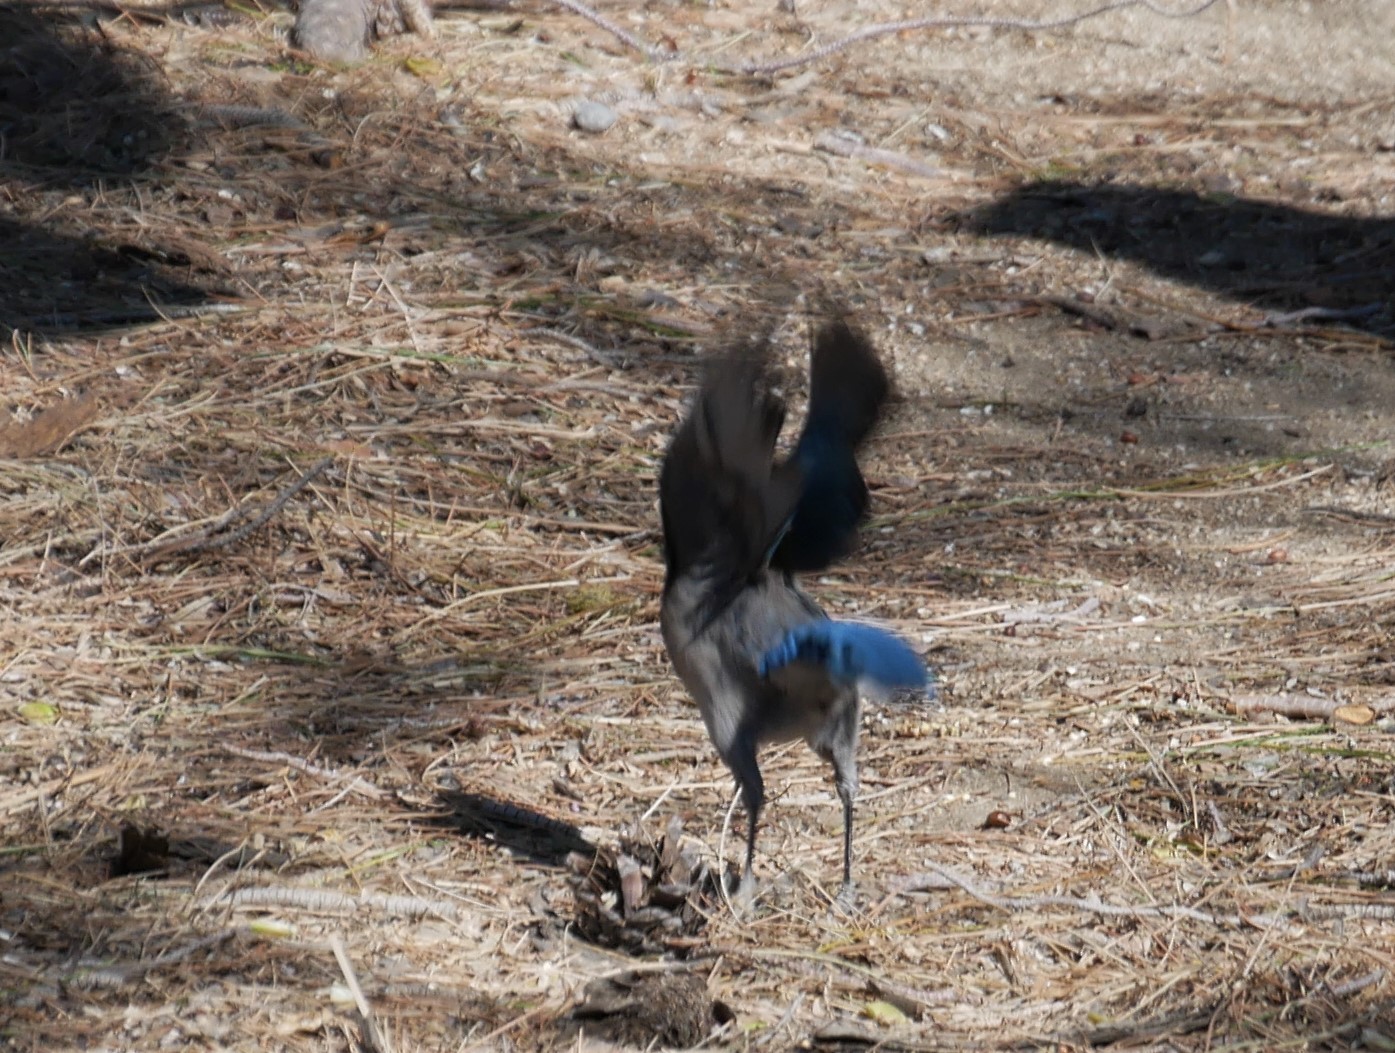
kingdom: Animalia
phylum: Chordata
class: Aves
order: Passeriformes
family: Corvidae
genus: Aphelocoma
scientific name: Aphelocoma californica
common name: California scrub-jay
